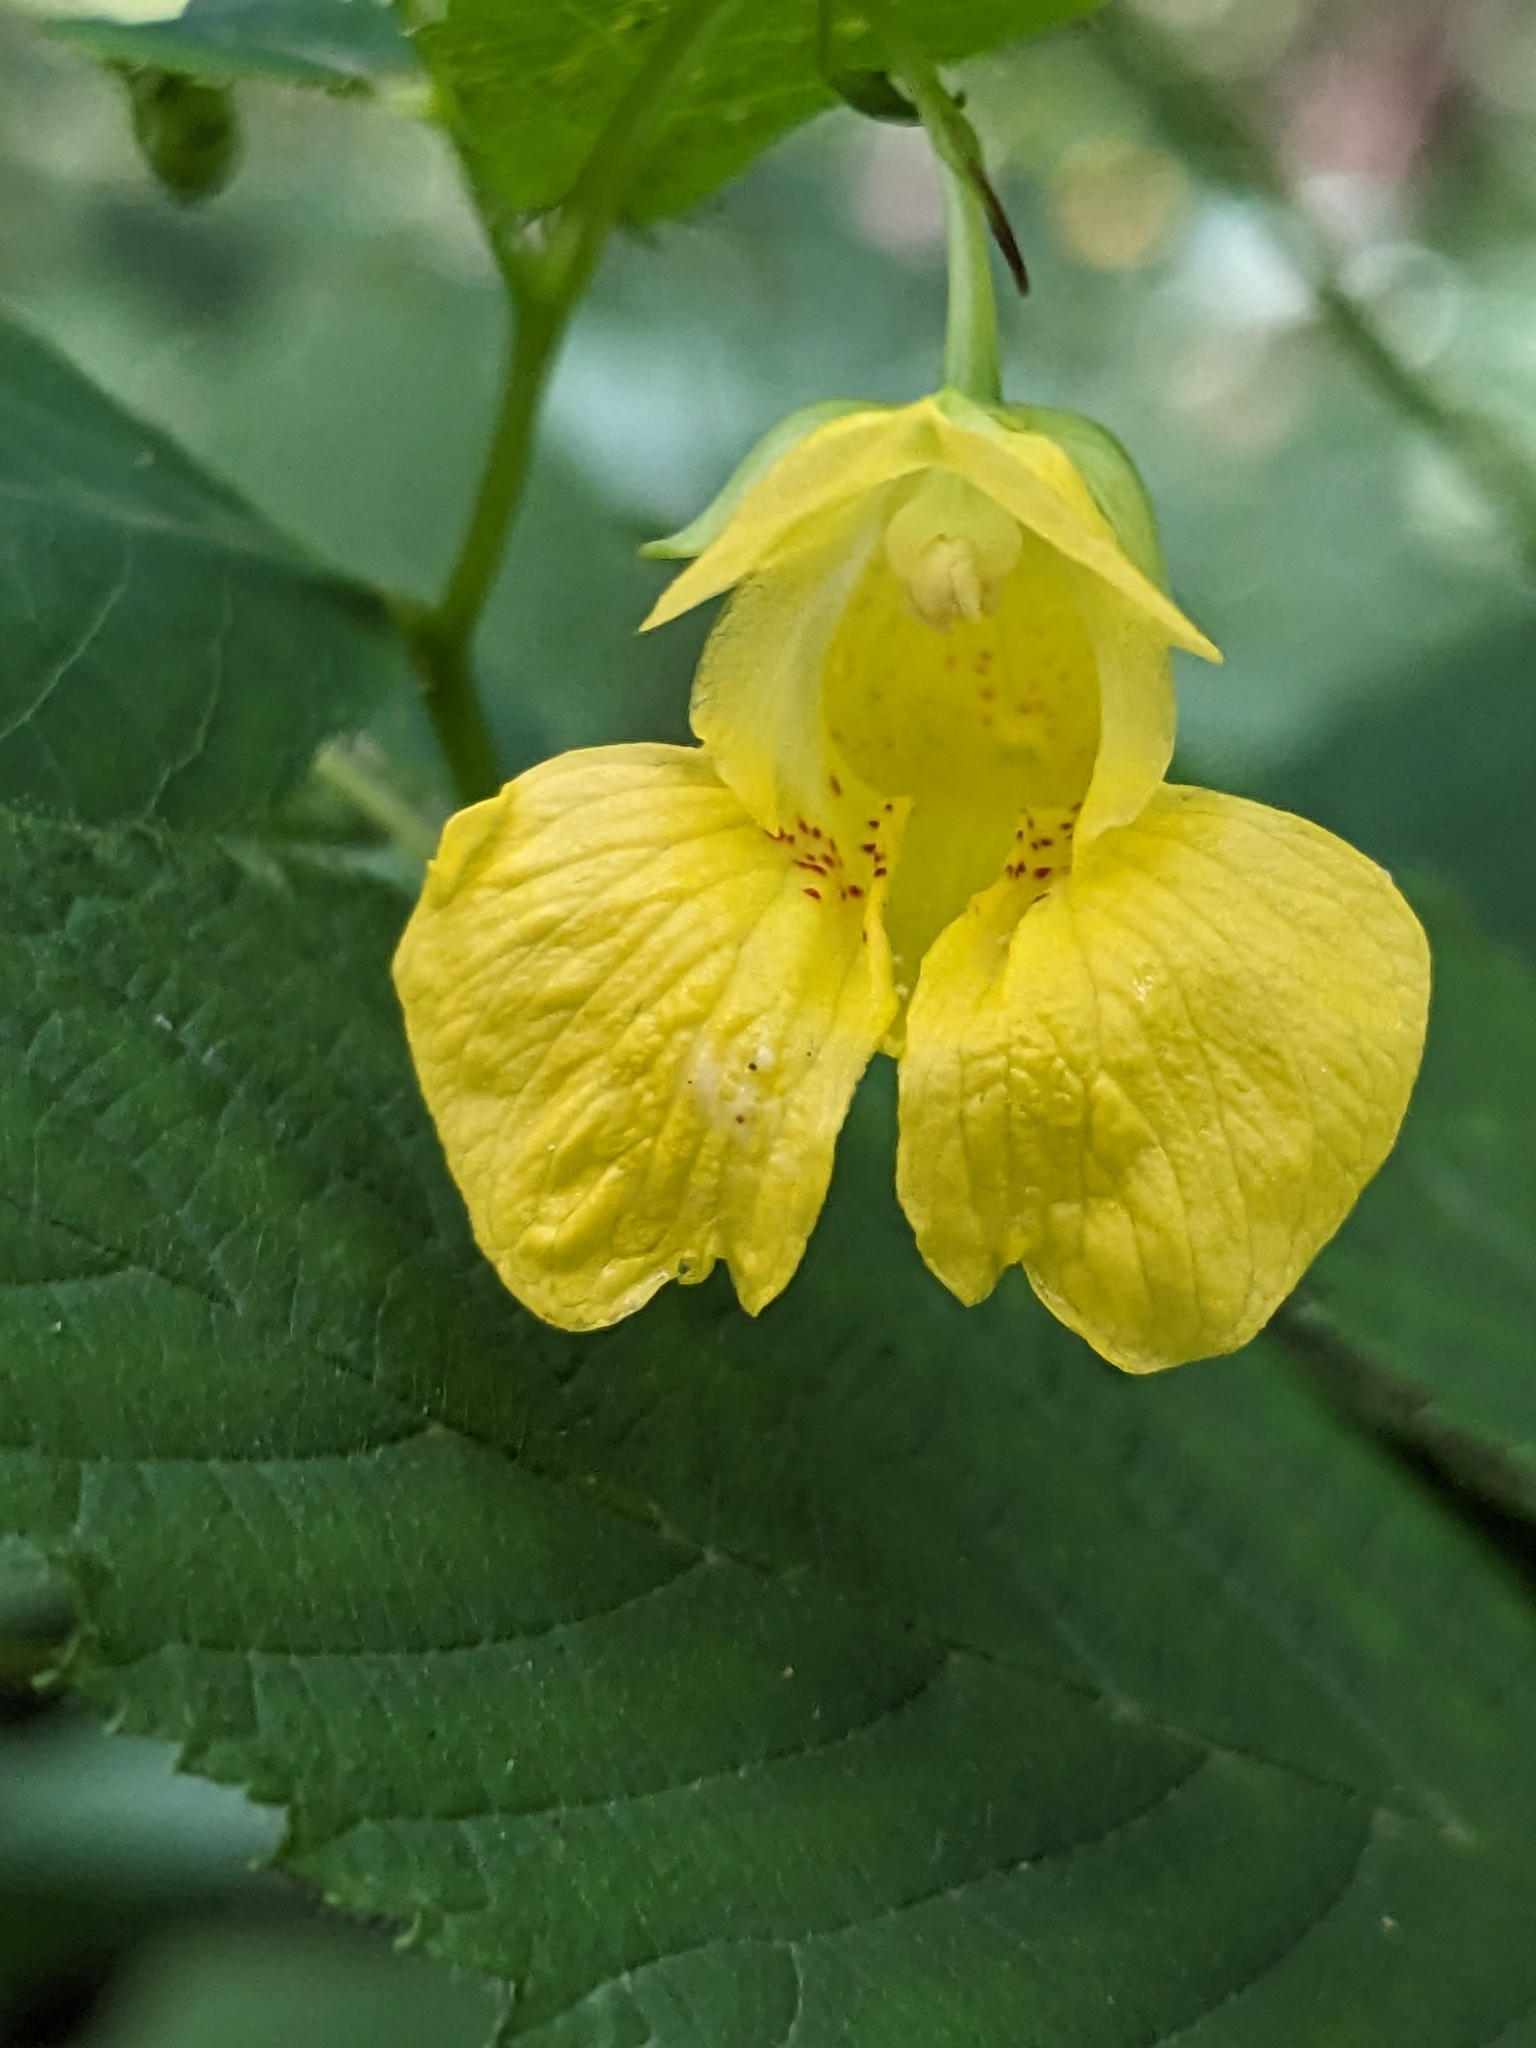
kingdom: Plantae
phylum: Tracheophyta
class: Magnoliopsida
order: Ericales
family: Balsaminaceae
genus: Impatiens
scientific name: Impatiens pallida
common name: Pale snapweed
